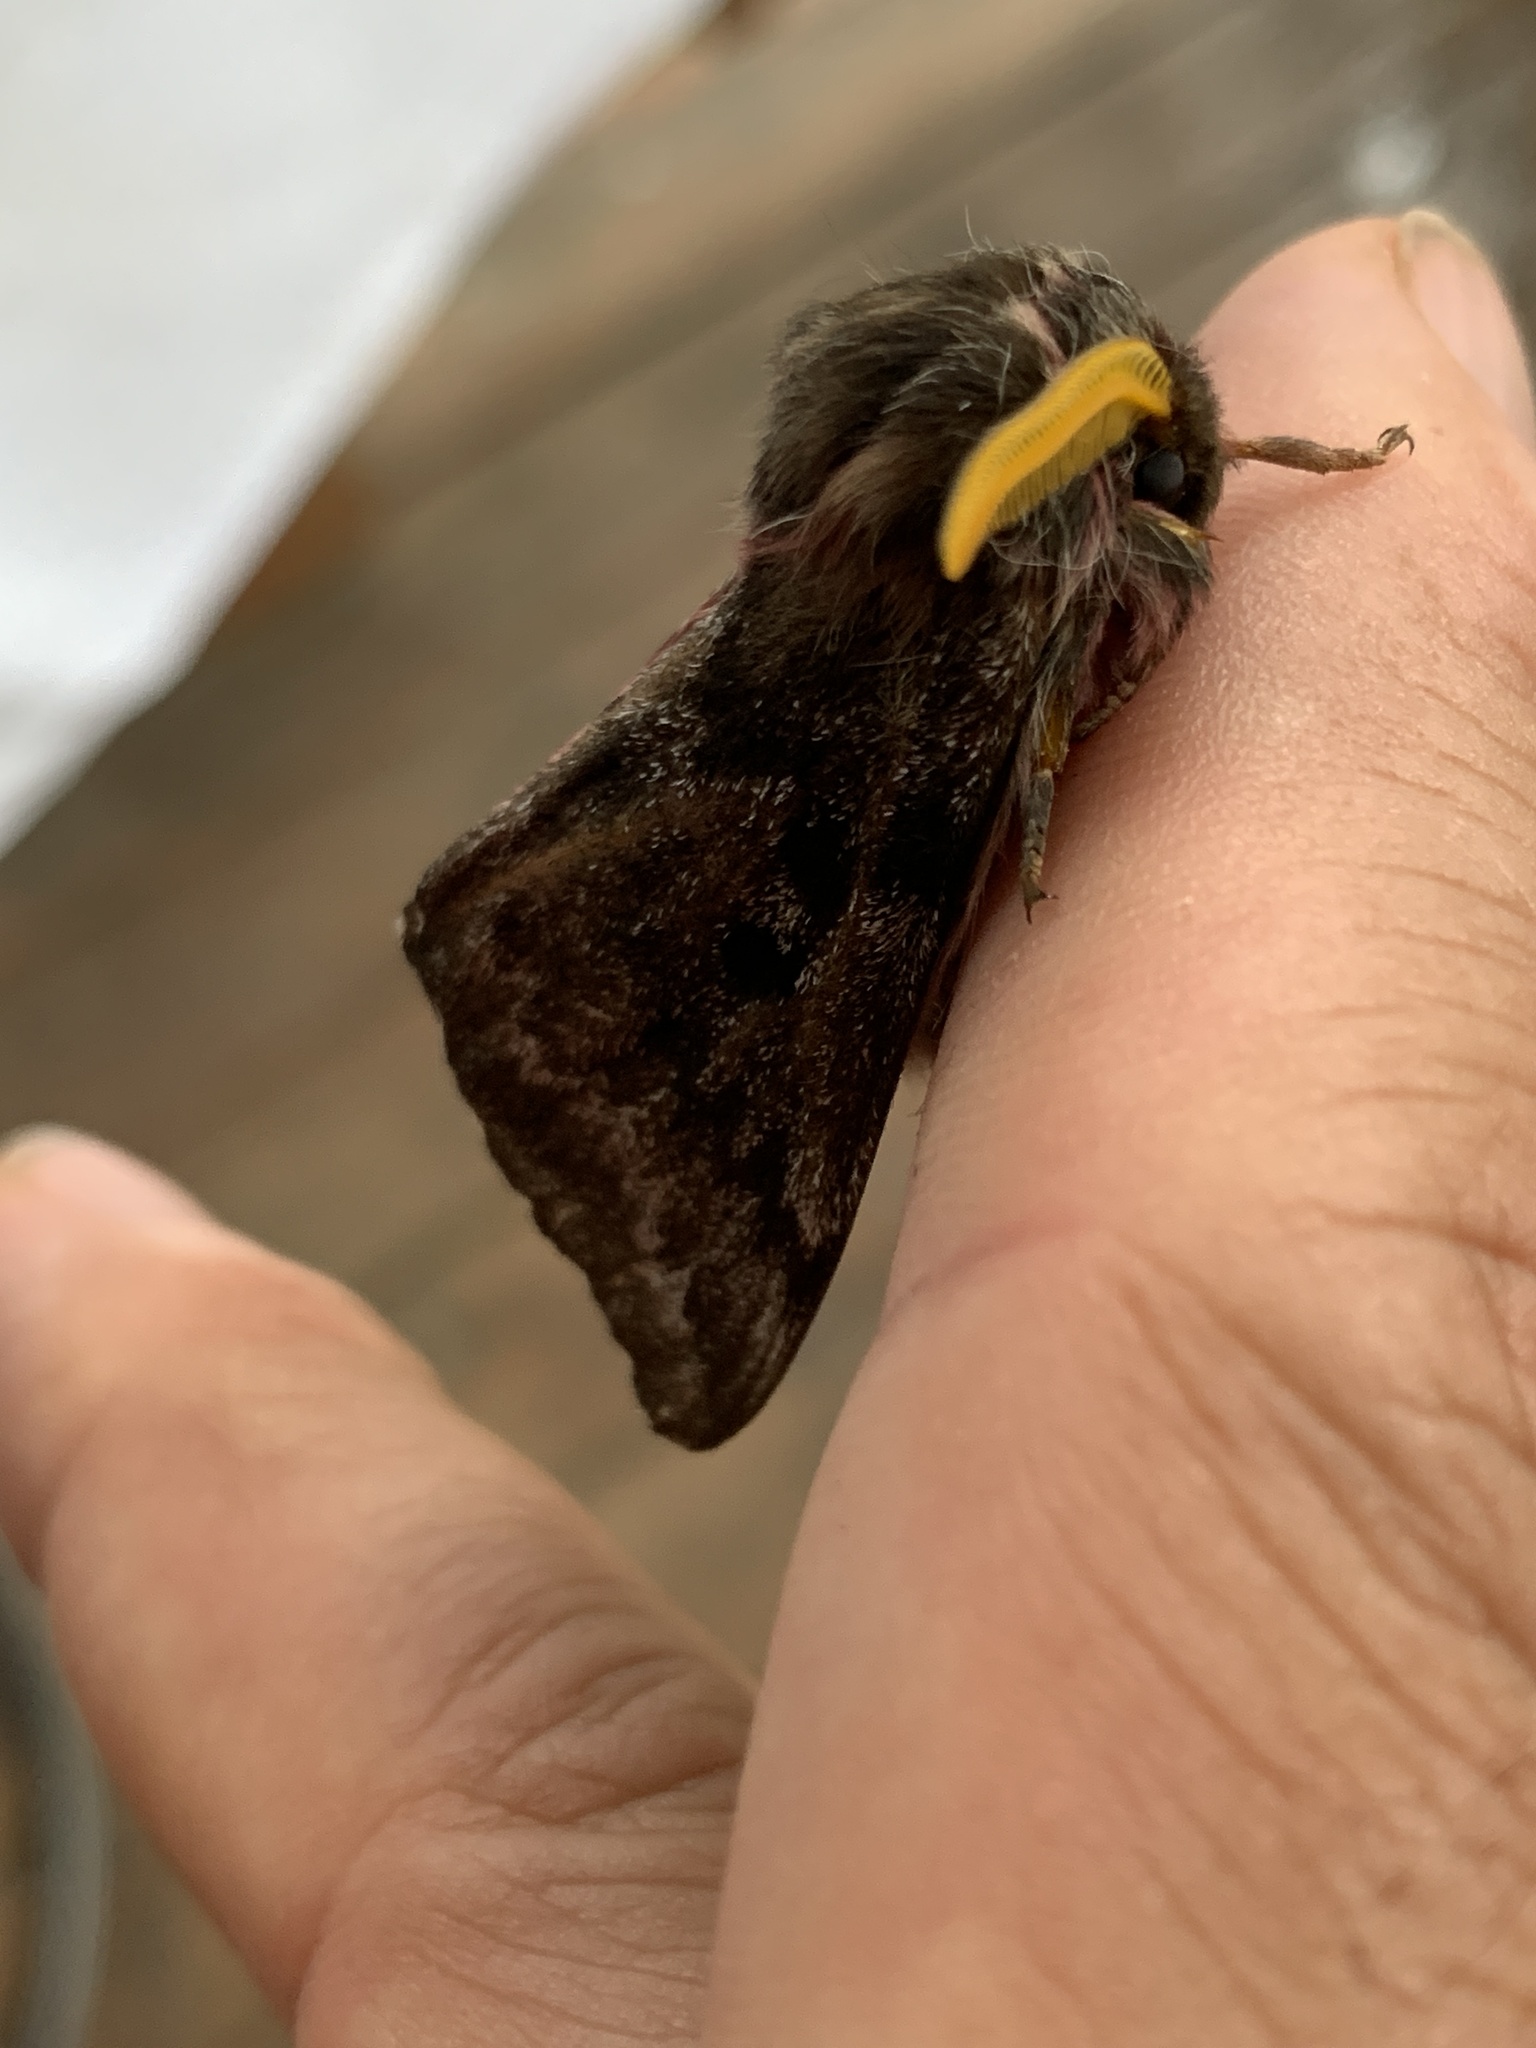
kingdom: Animalia
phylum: Arthropoda
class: Insecta
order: Lepidoptera
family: Saturniidae
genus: Coloradia
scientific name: Coloradia pandora
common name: Pandora pinemoth
